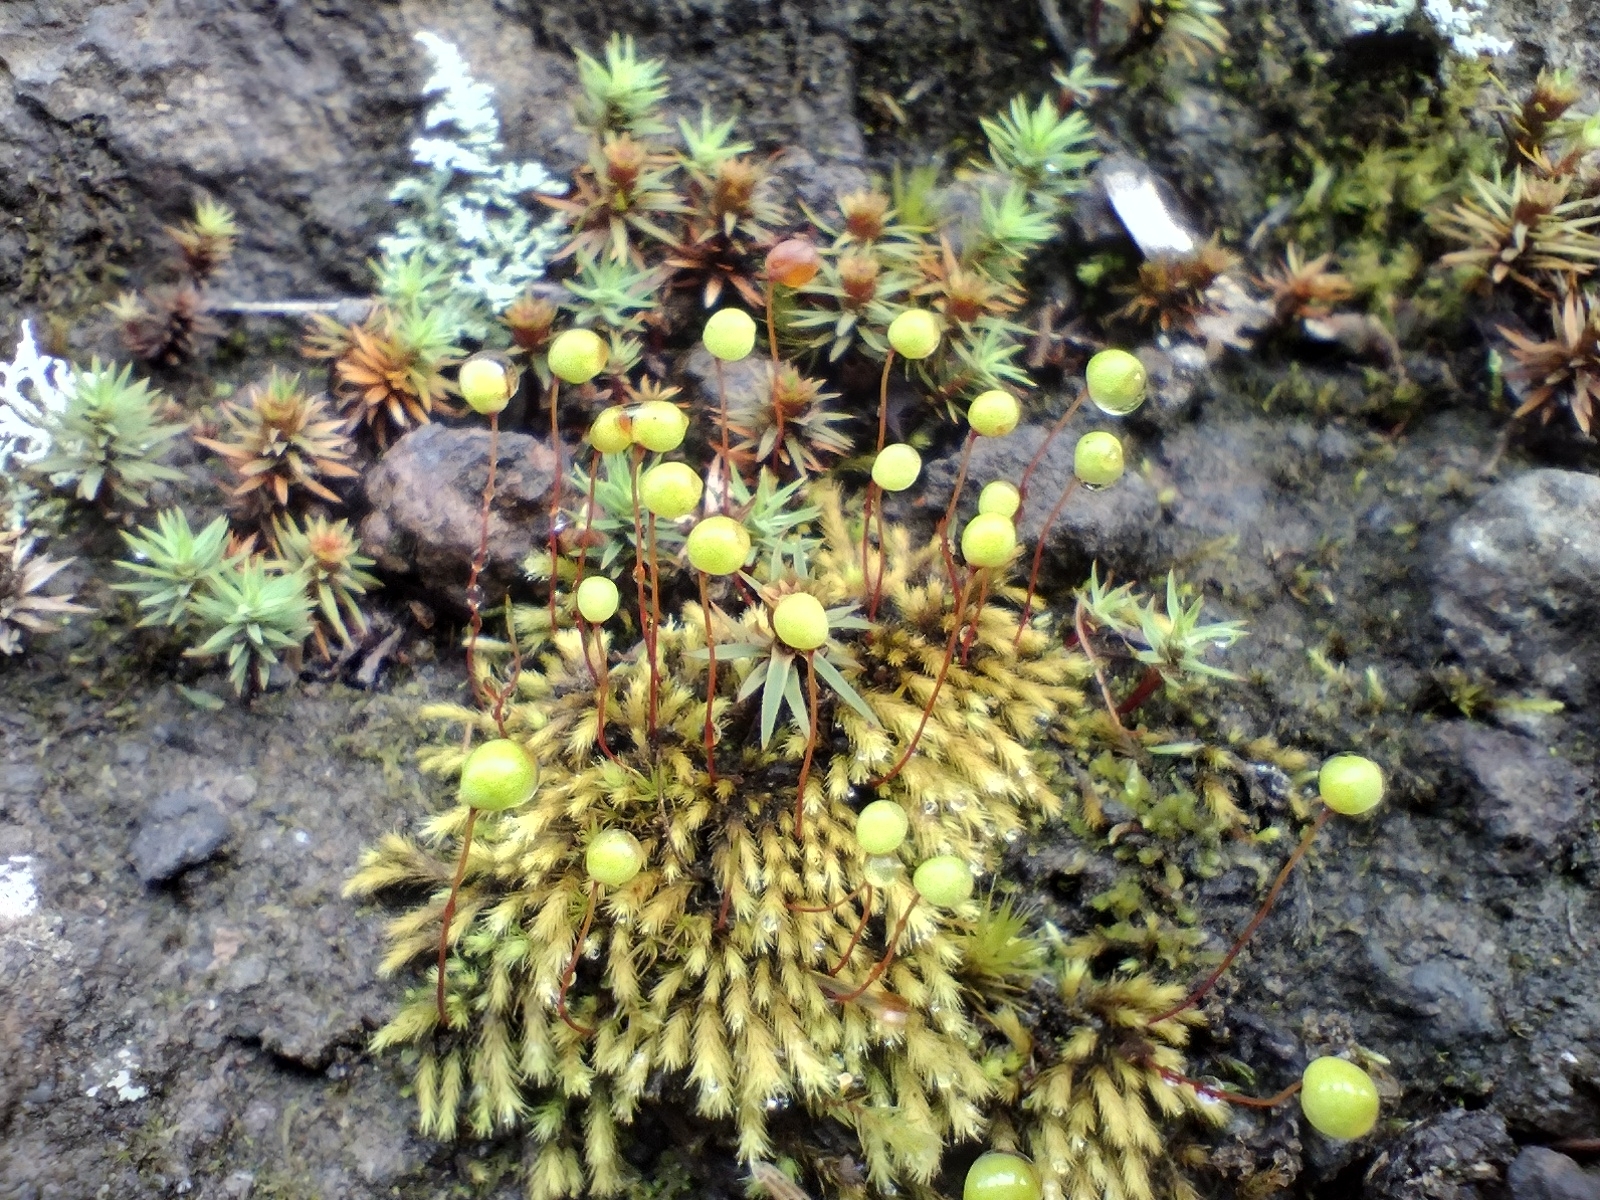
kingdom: Plantae
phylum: Bryophyta
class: Bryopsida
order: Bartramiales
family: Bartramiaceae
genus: Philonotis
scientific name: Philonotis rigida
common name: Rigid apple-moss
